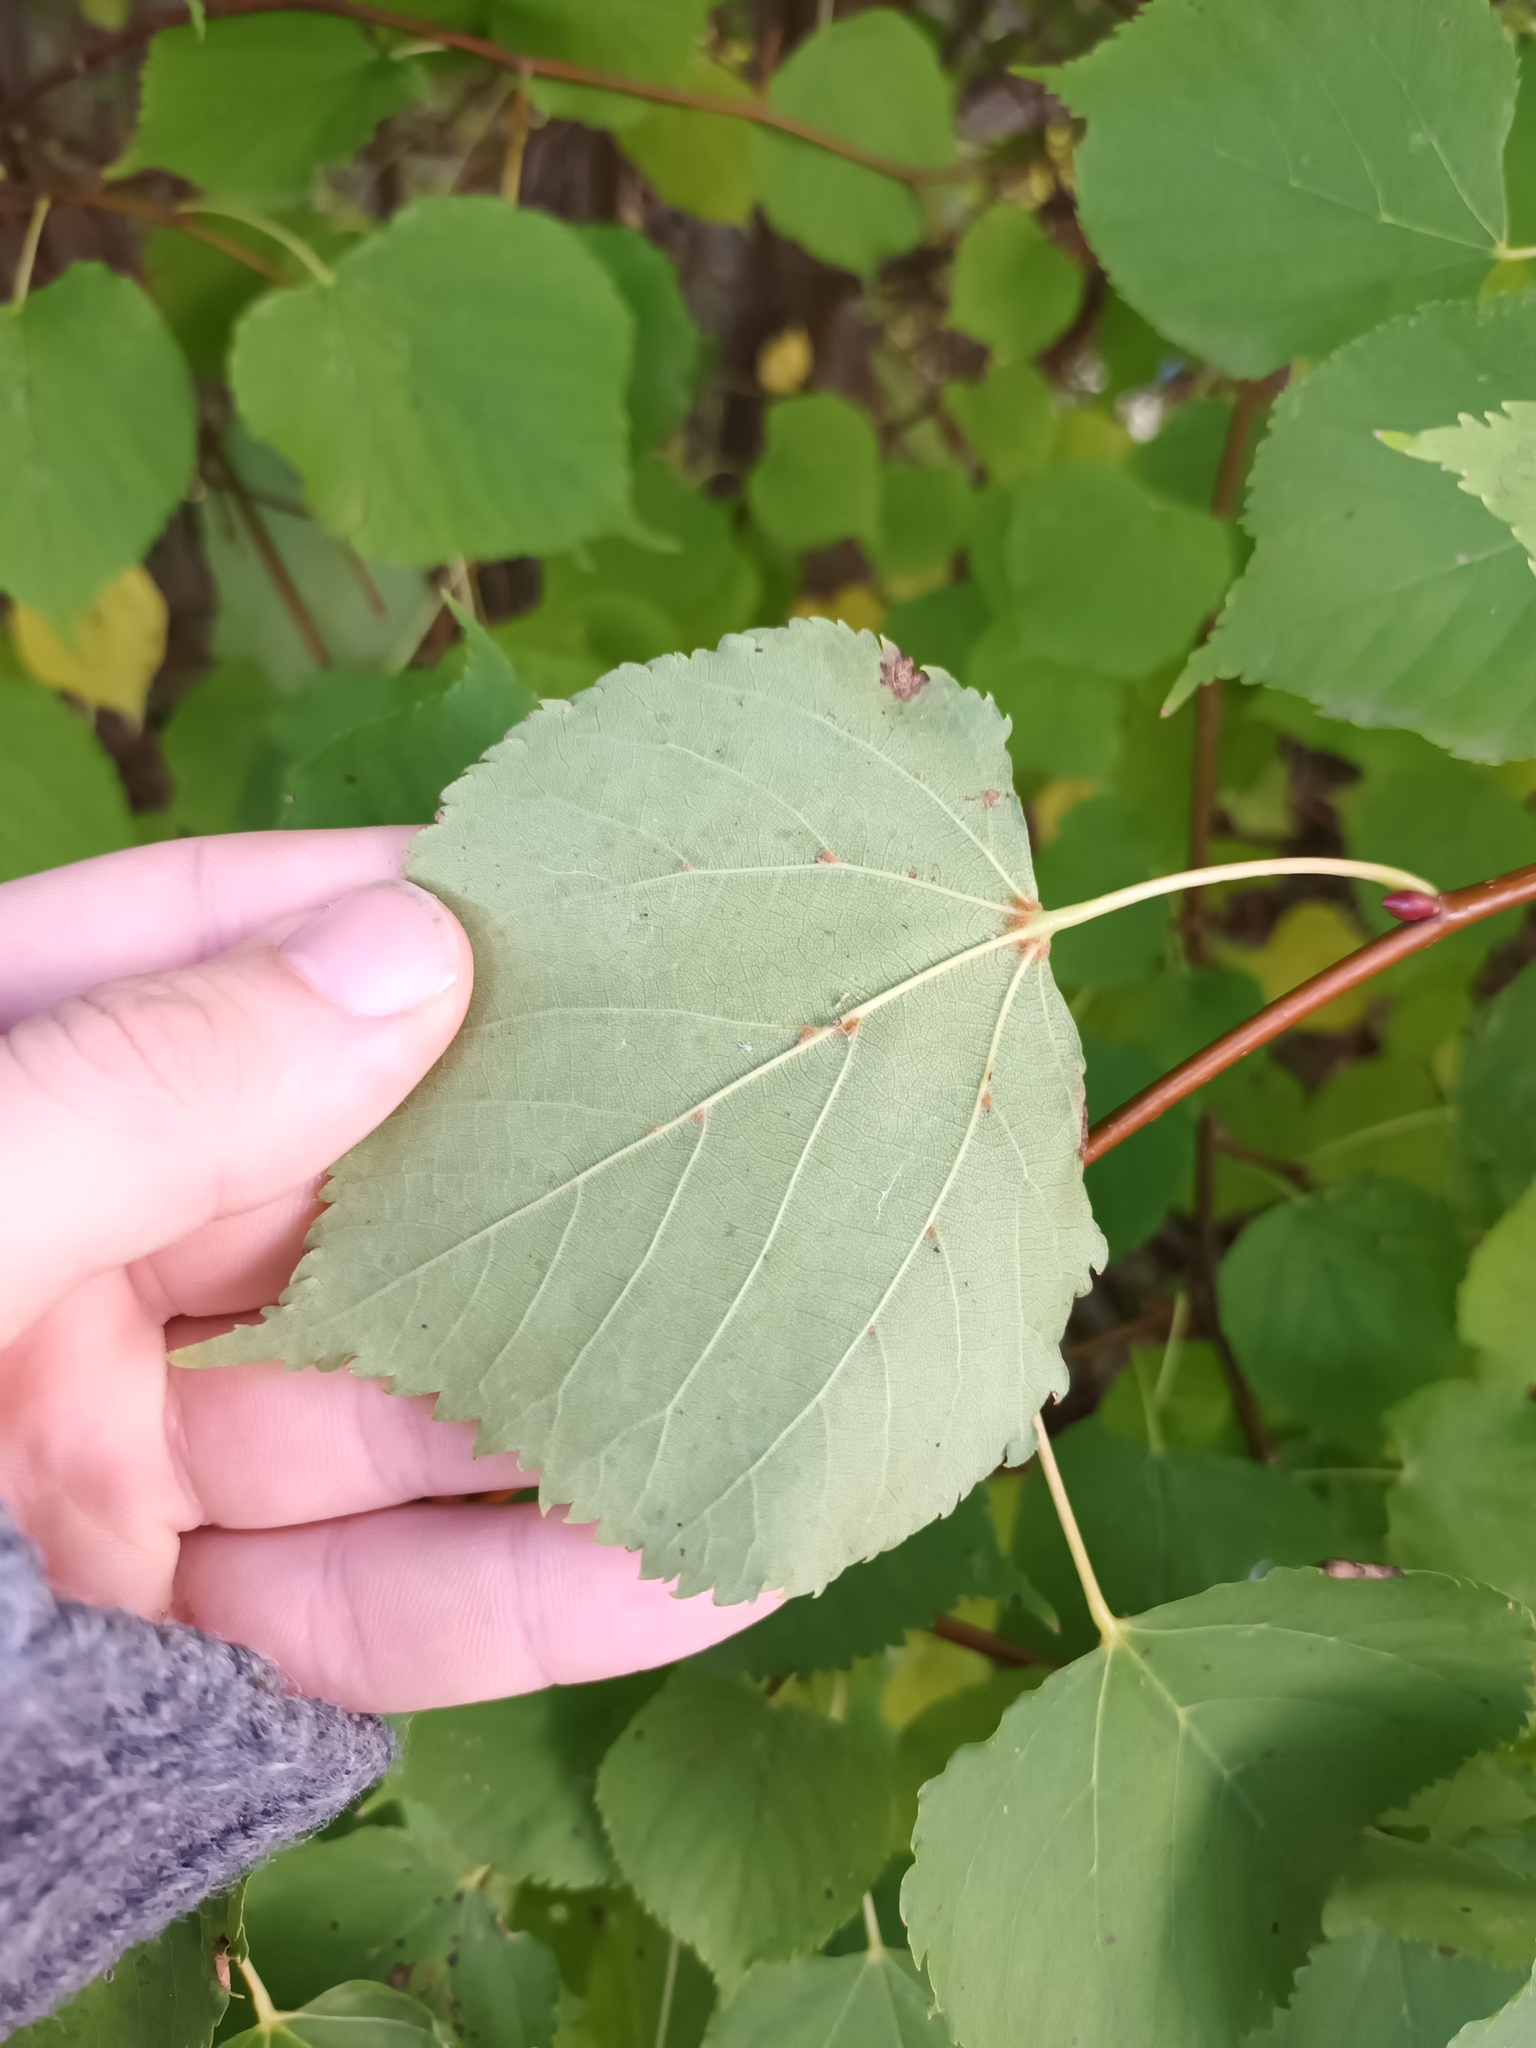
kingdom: Plantae
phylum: Tracheophyta
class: Magnoliopsida
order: Malvales
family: Malvaceae
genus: Tilia
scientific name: Tilia cordata
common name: Small-leaved lime
